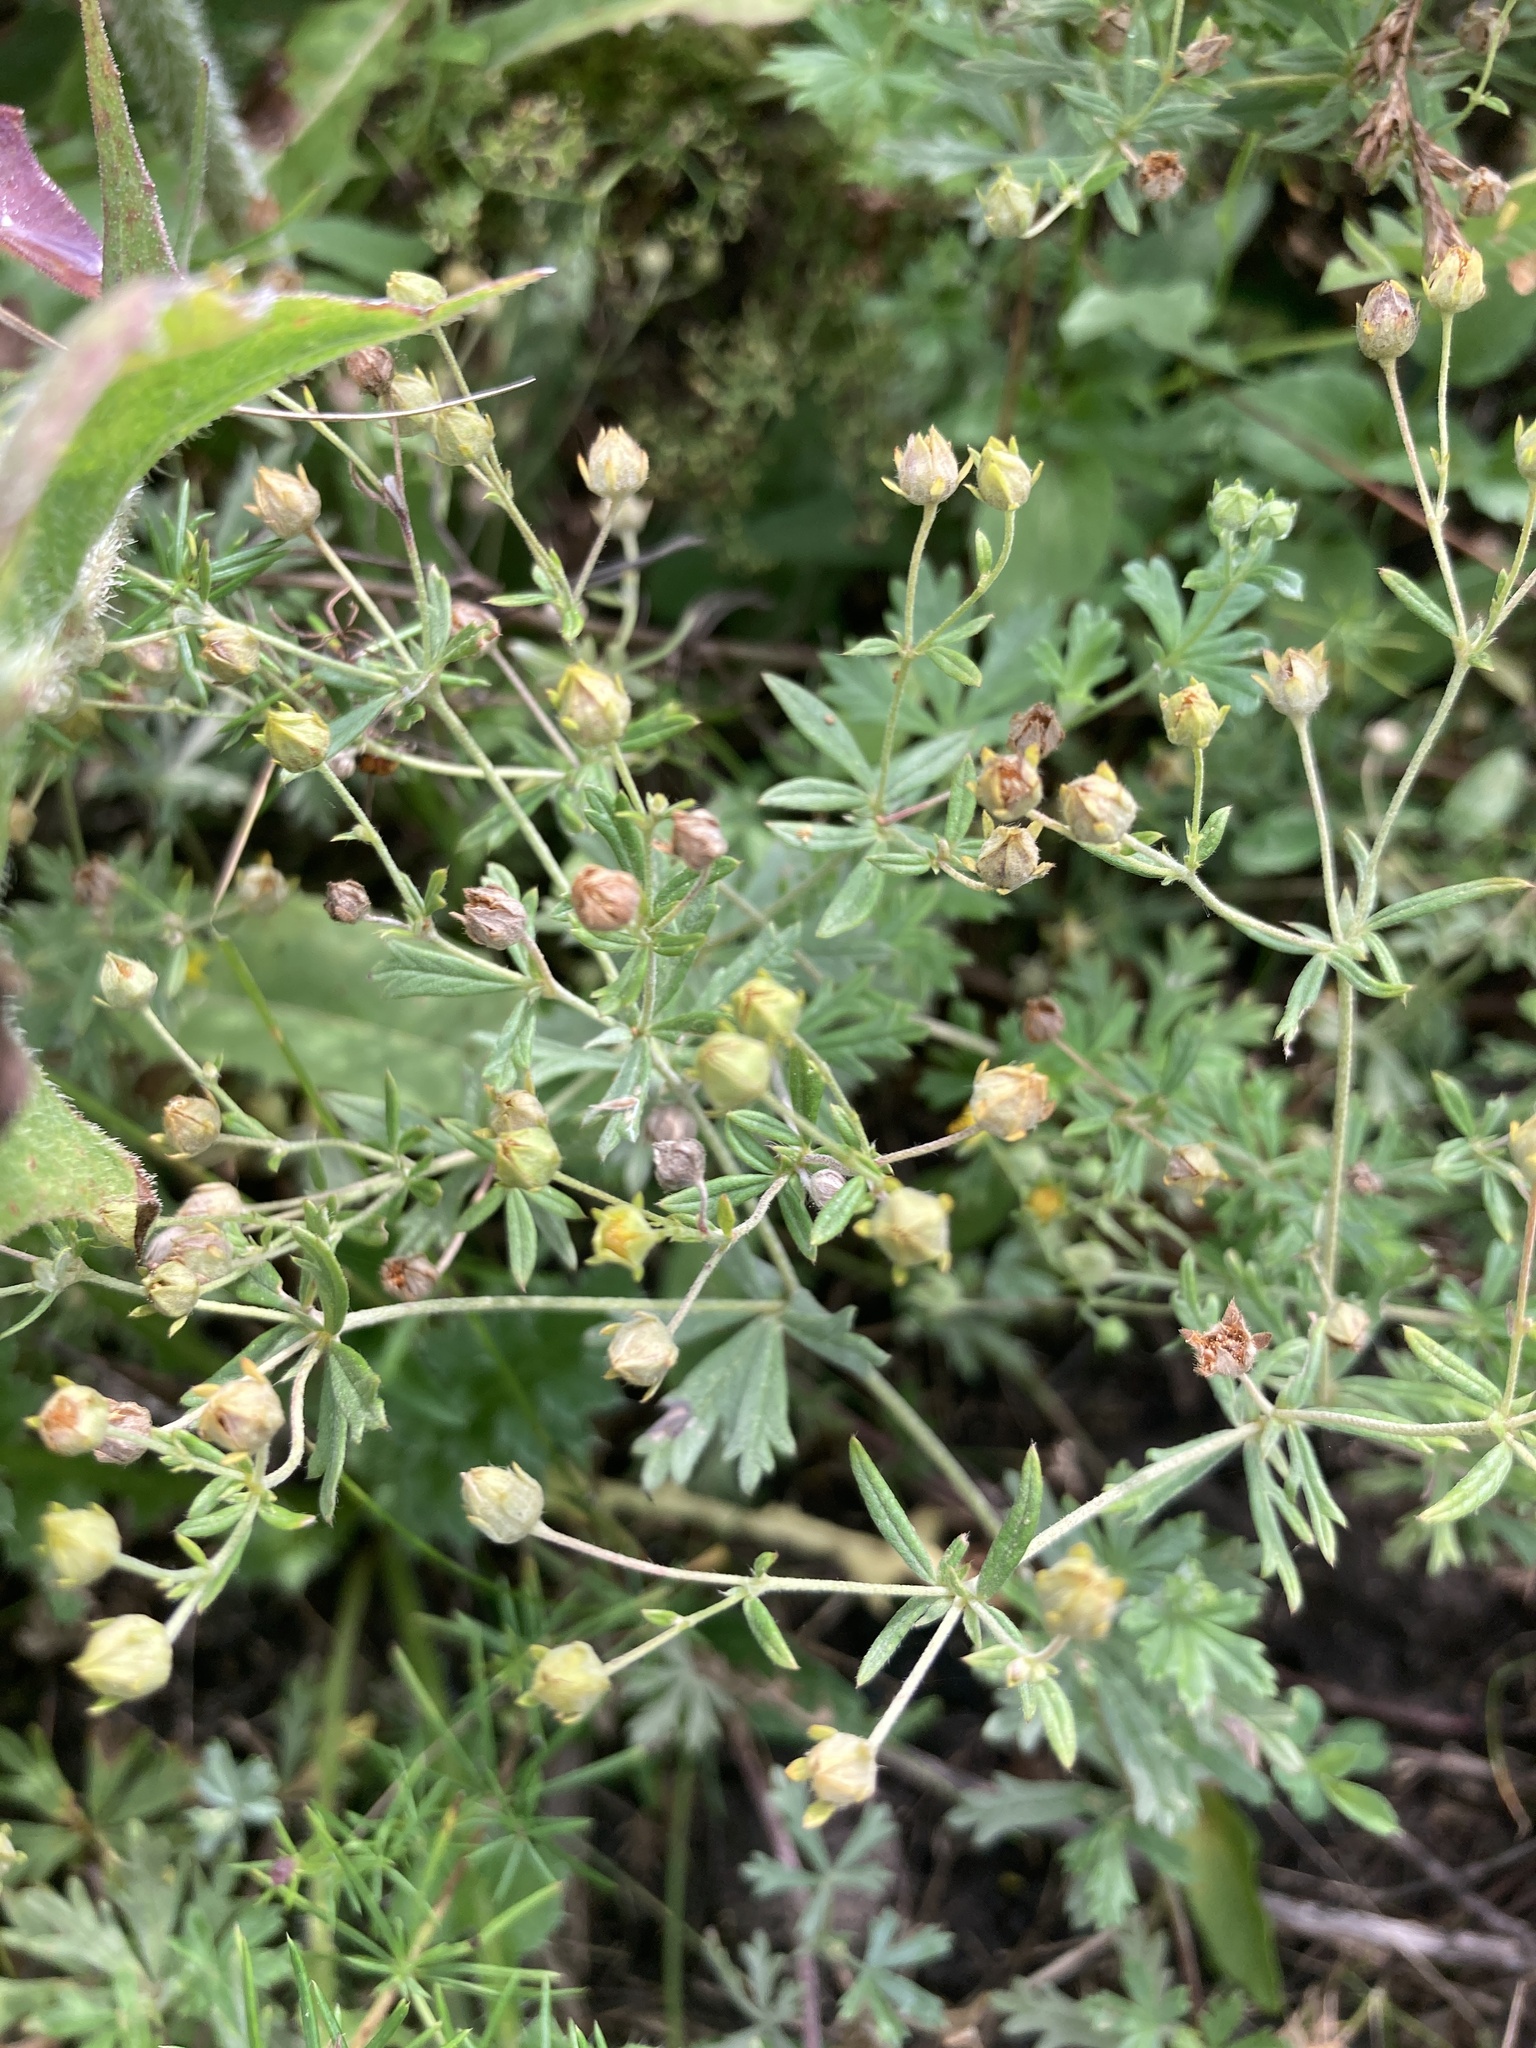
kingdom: Plantae
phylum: Tracheophyta
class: Magnoliopsida
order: Rosales
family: Rosaceae
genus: Potentilla
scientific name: Potentilla argentea
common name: Hoary cinquefoil
